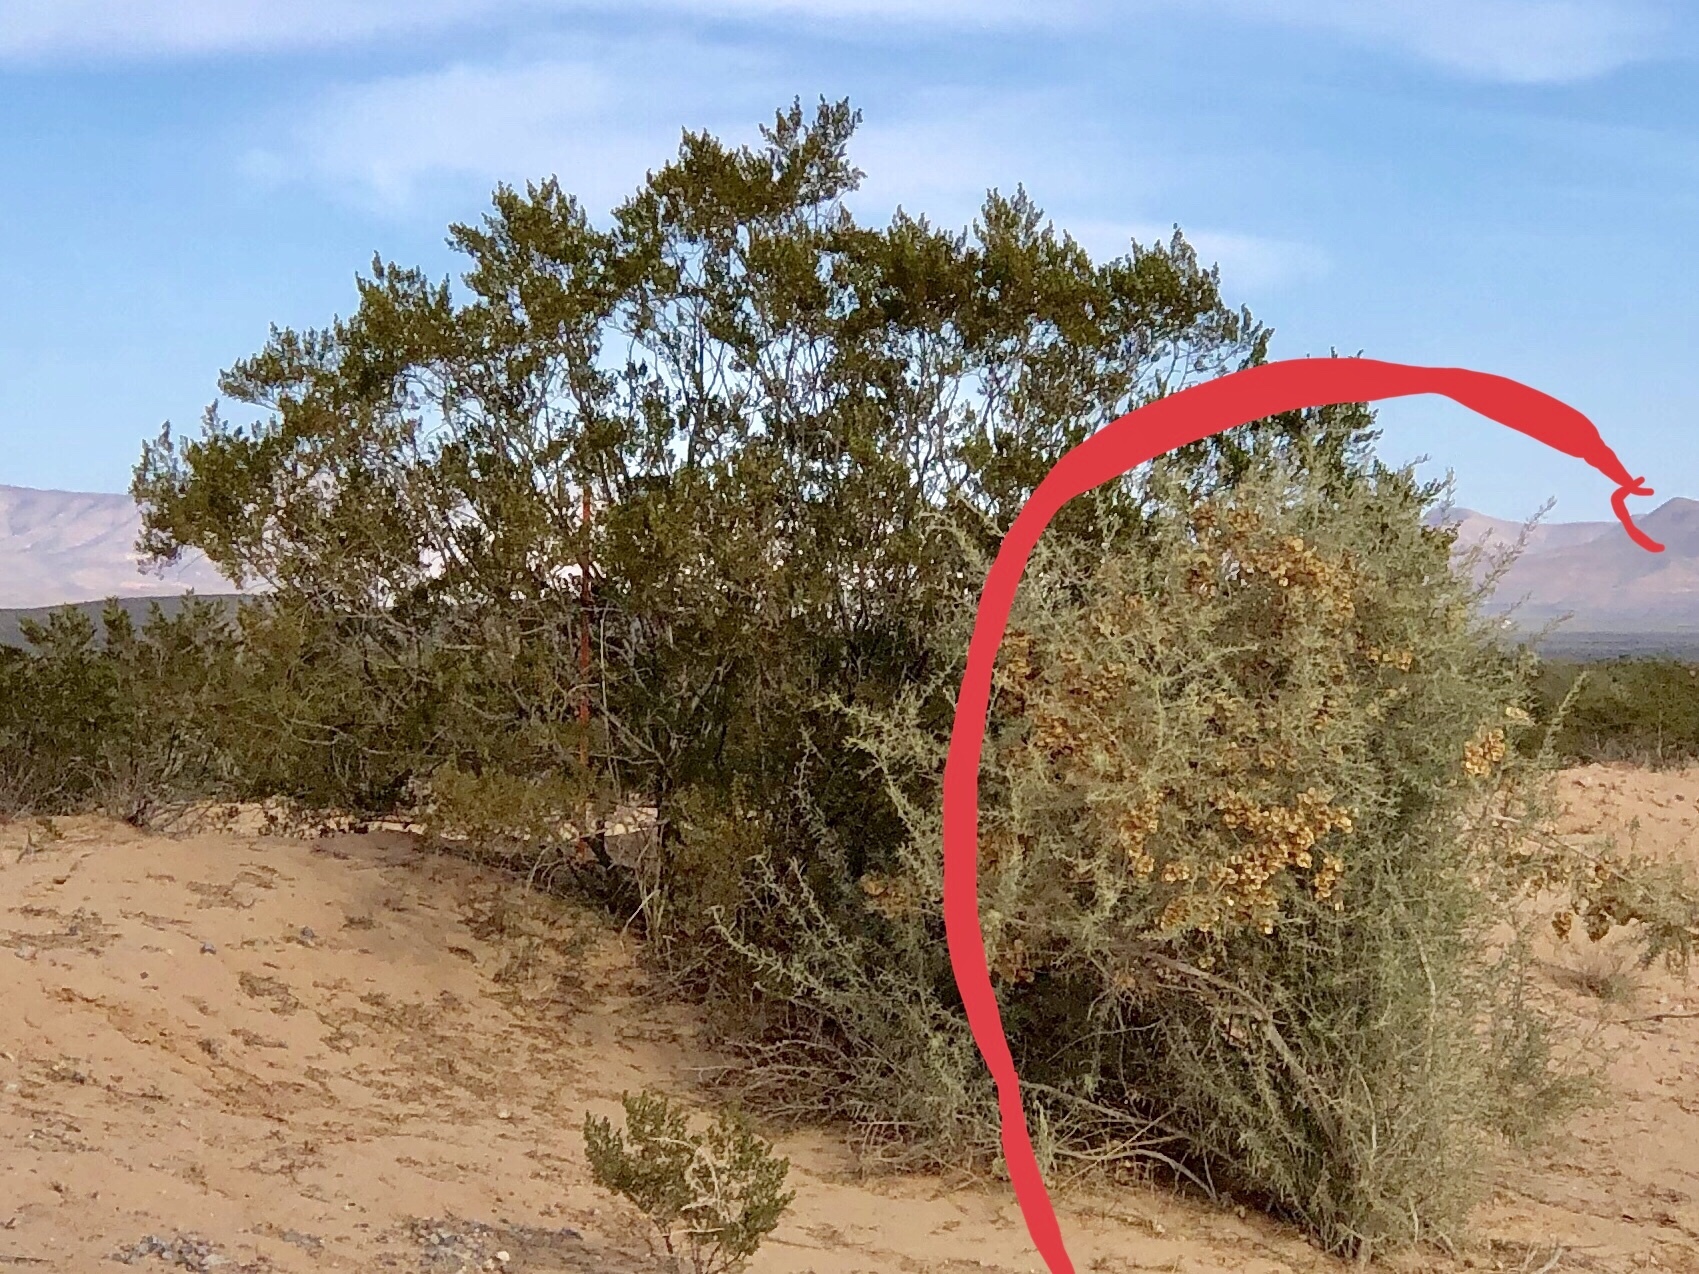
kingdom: Plantae
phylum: Tracheophyta
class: Magnoliopsida
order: Zygophyllales
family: Zygophyllaceae
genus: Larrea
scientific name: Larrea tridentata
